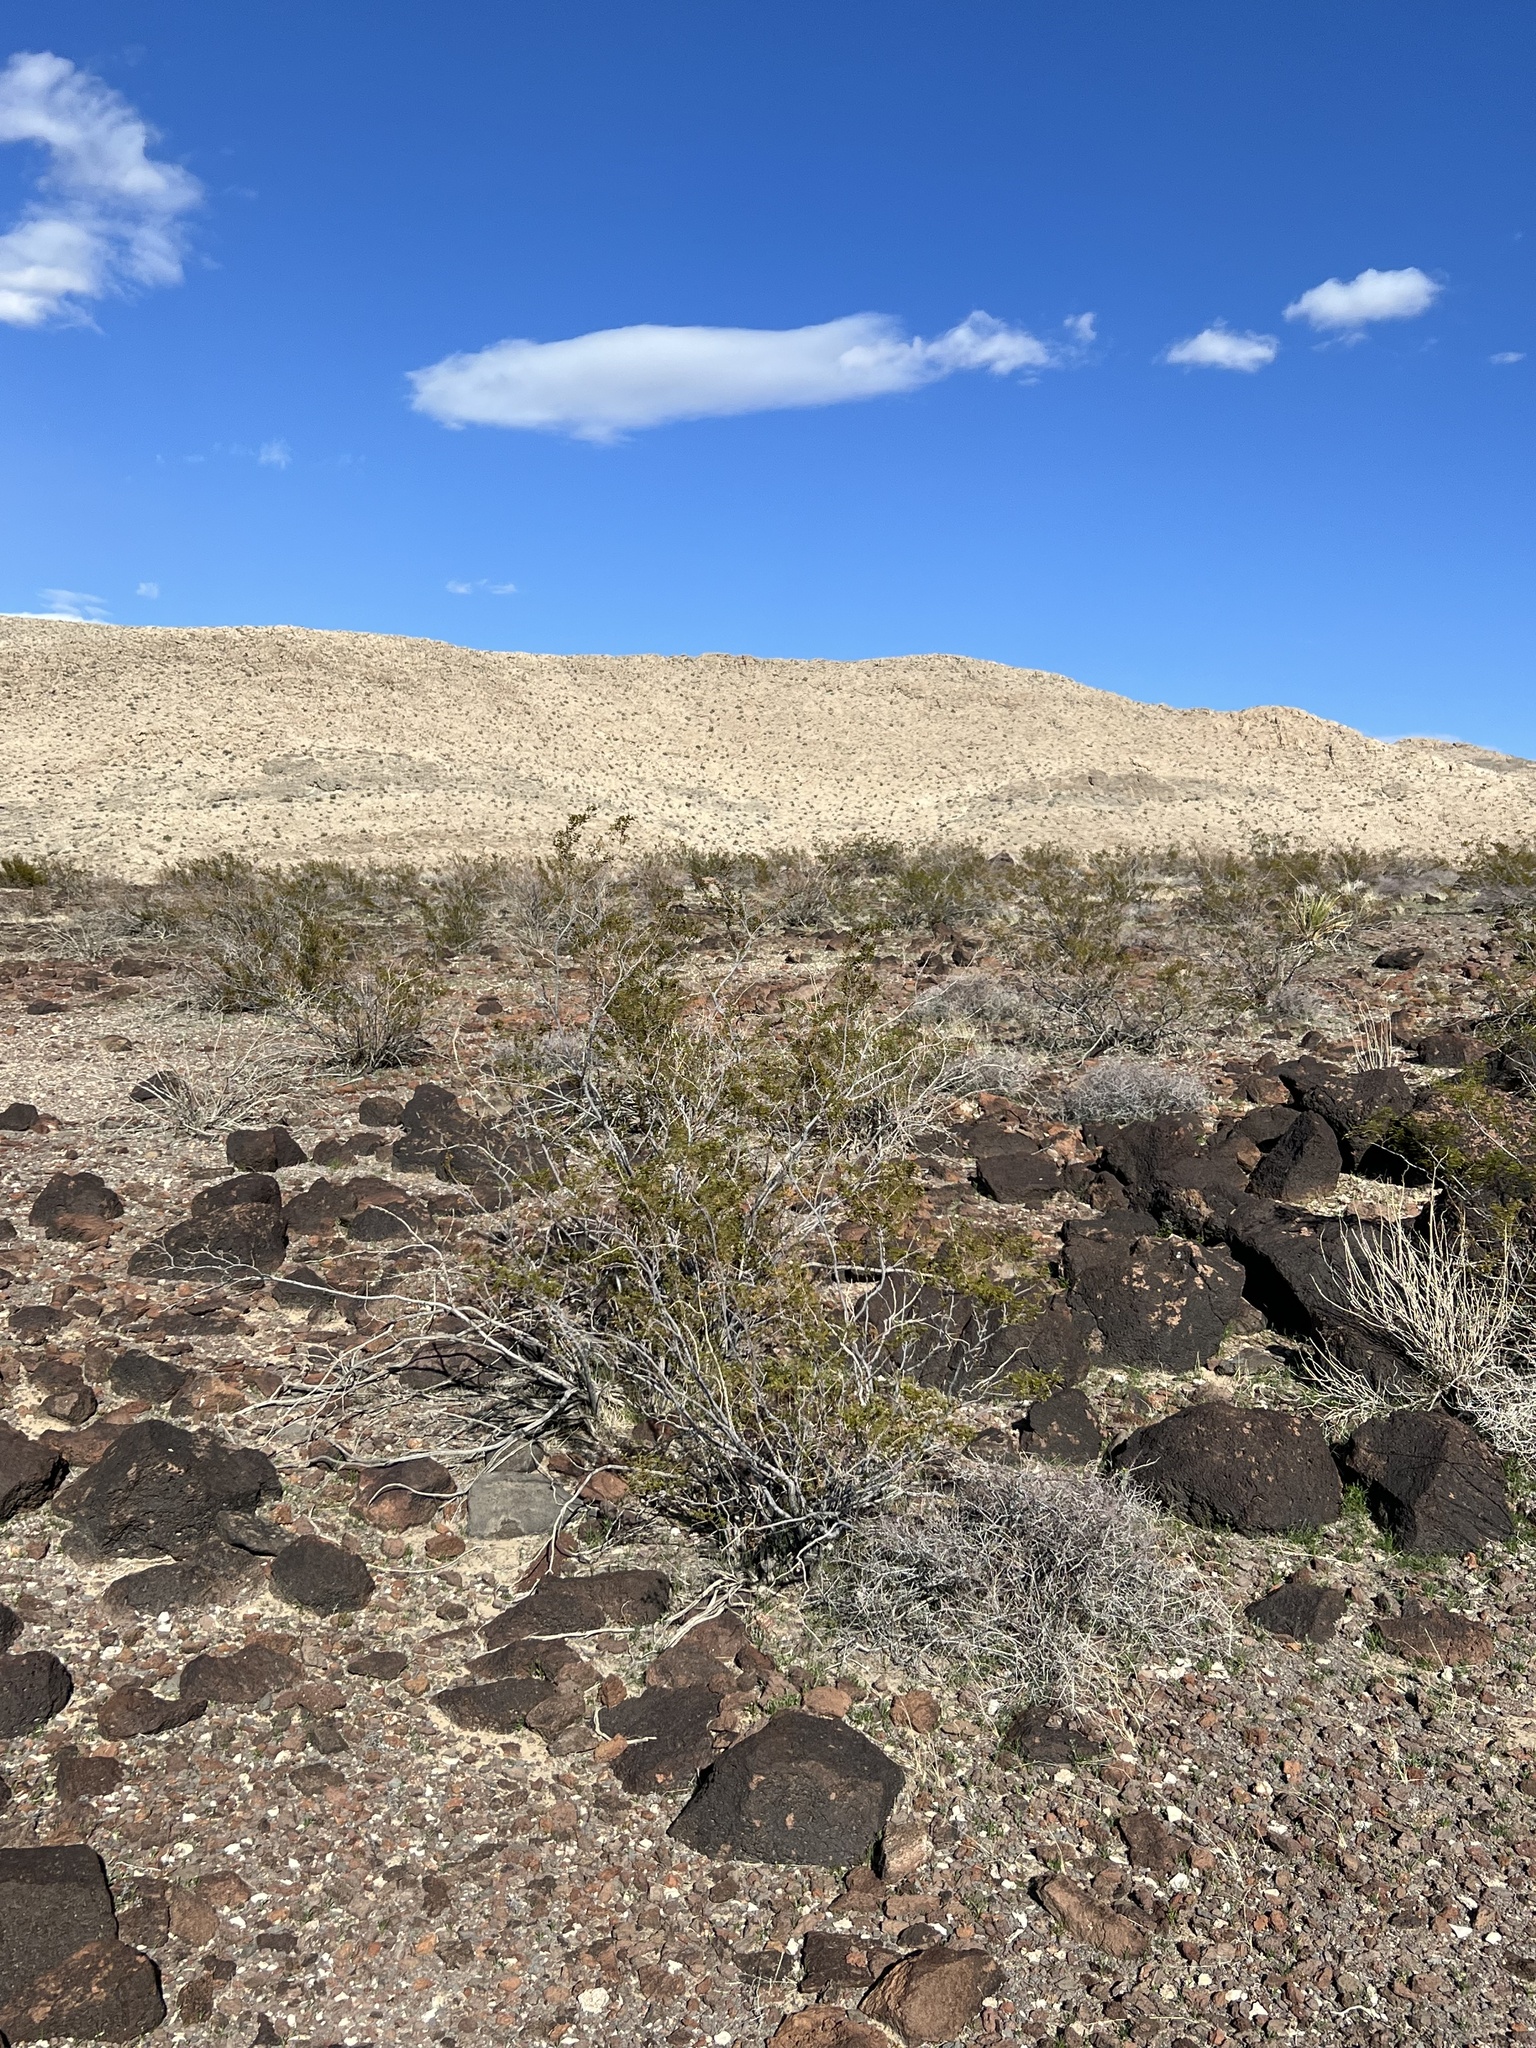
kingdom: Plantae
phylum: Tracheophyta
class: Magnoliopsida
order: Zygophyllales
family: Zygophyllaceae
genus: Larrea
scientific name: Larrea tridentata
